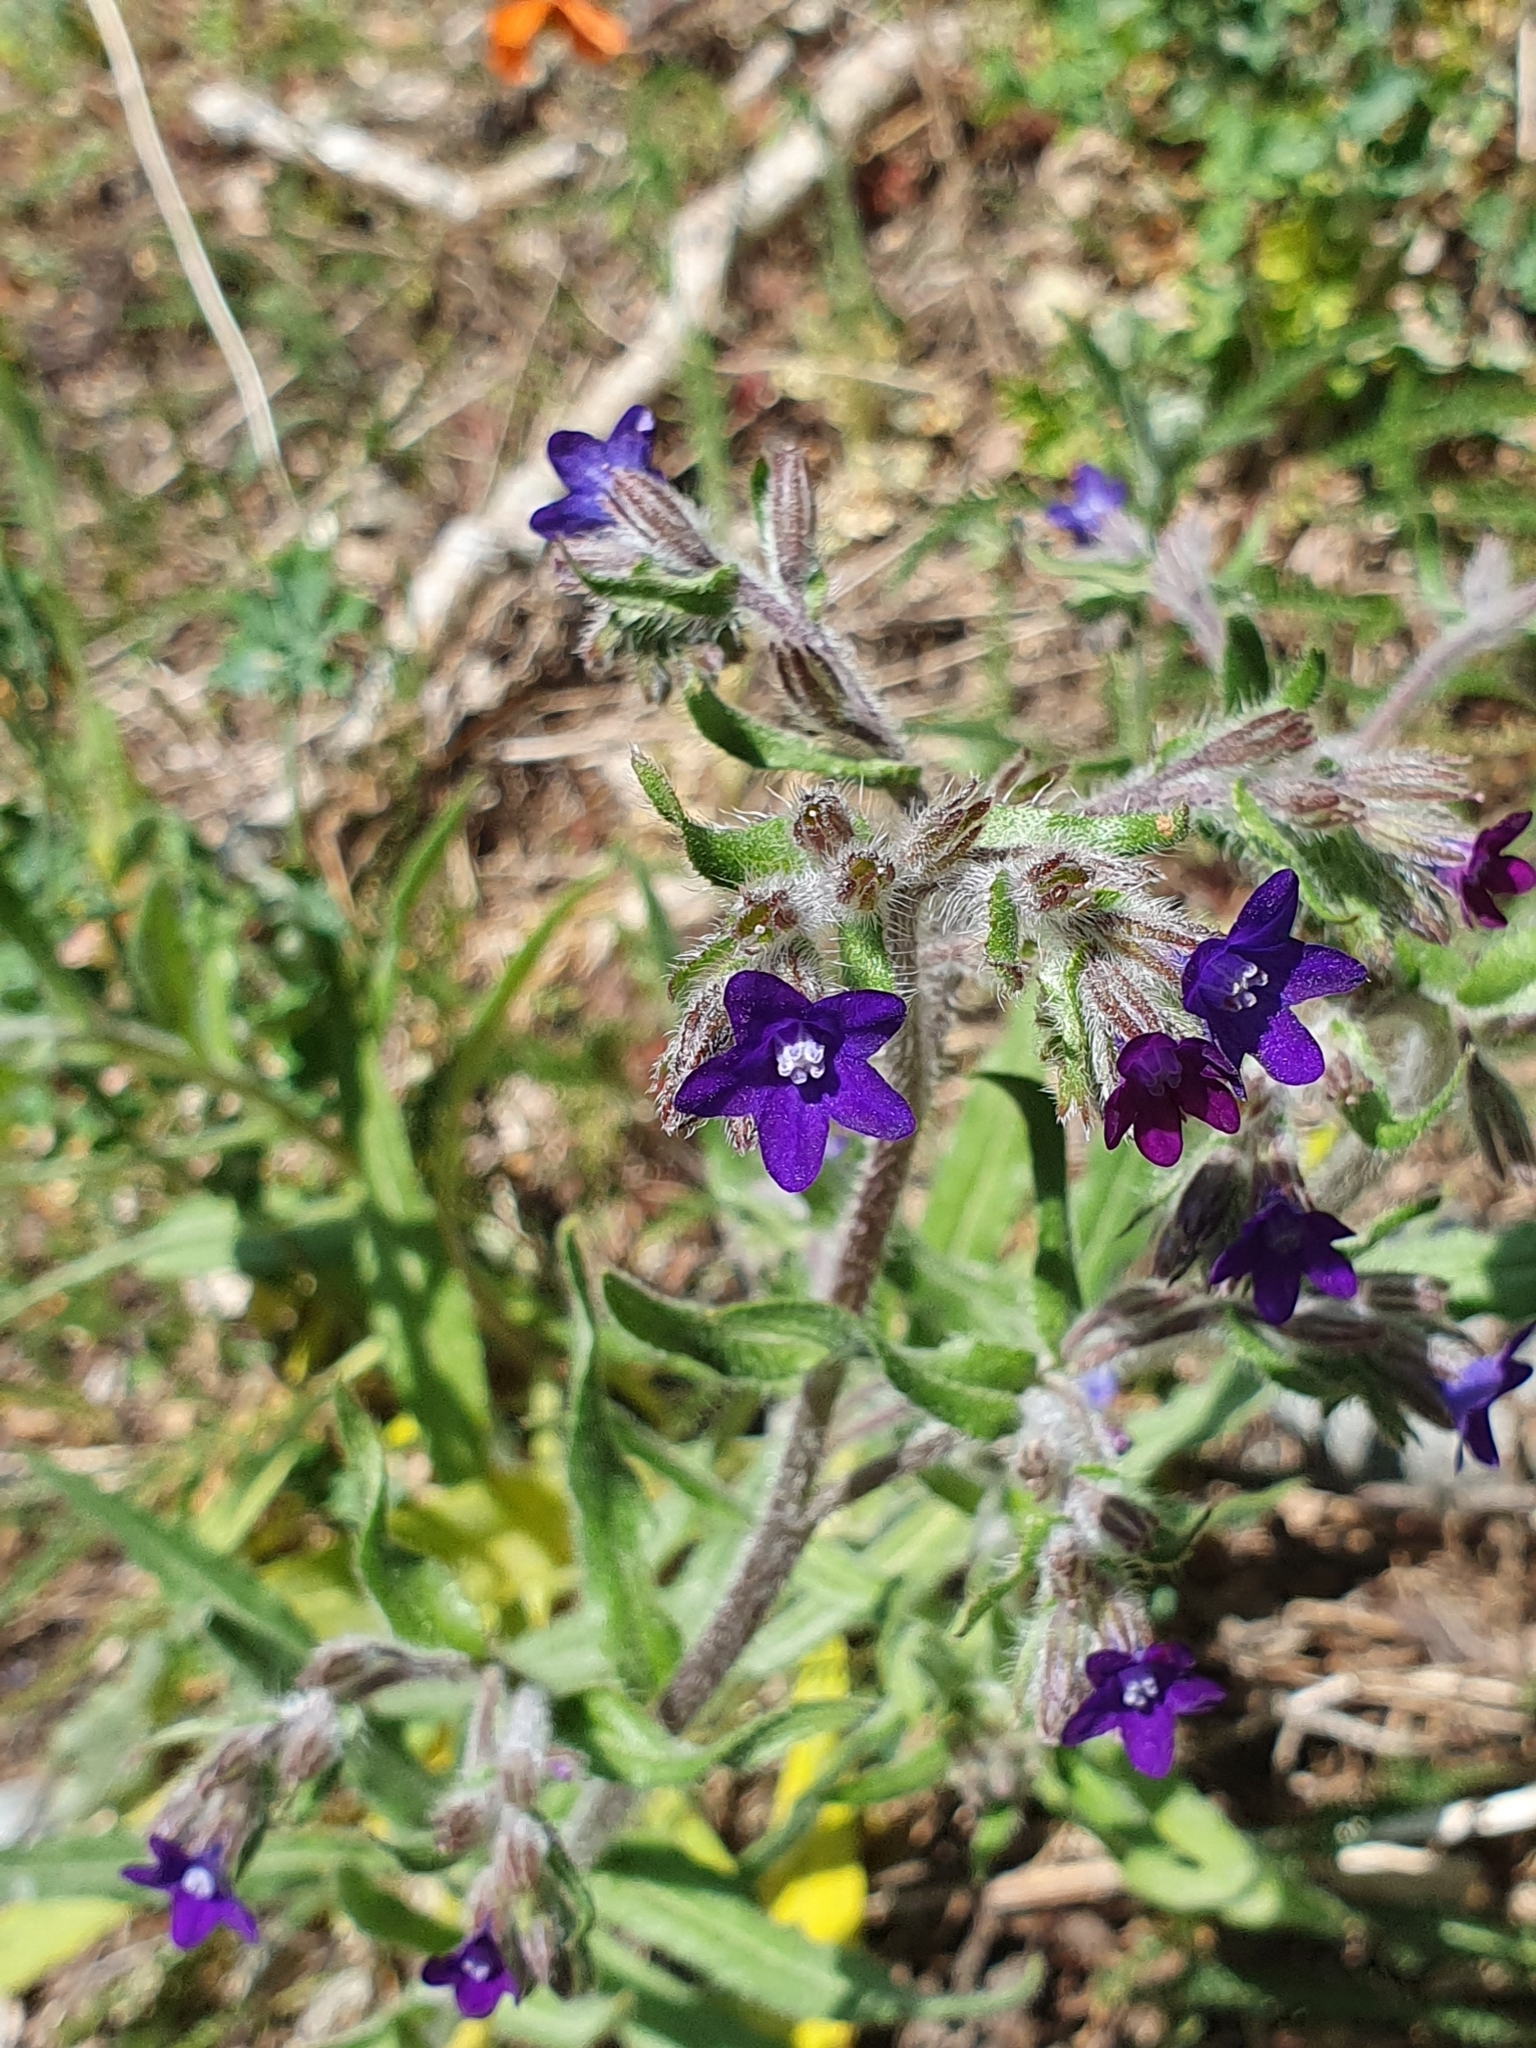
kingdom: Plantae
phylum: Tracheophyta
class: Magnoliopsida
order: Boraginales
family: Boraginaceae
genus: Anchusa
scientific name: Anchusa officinalis
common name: Alkanet
